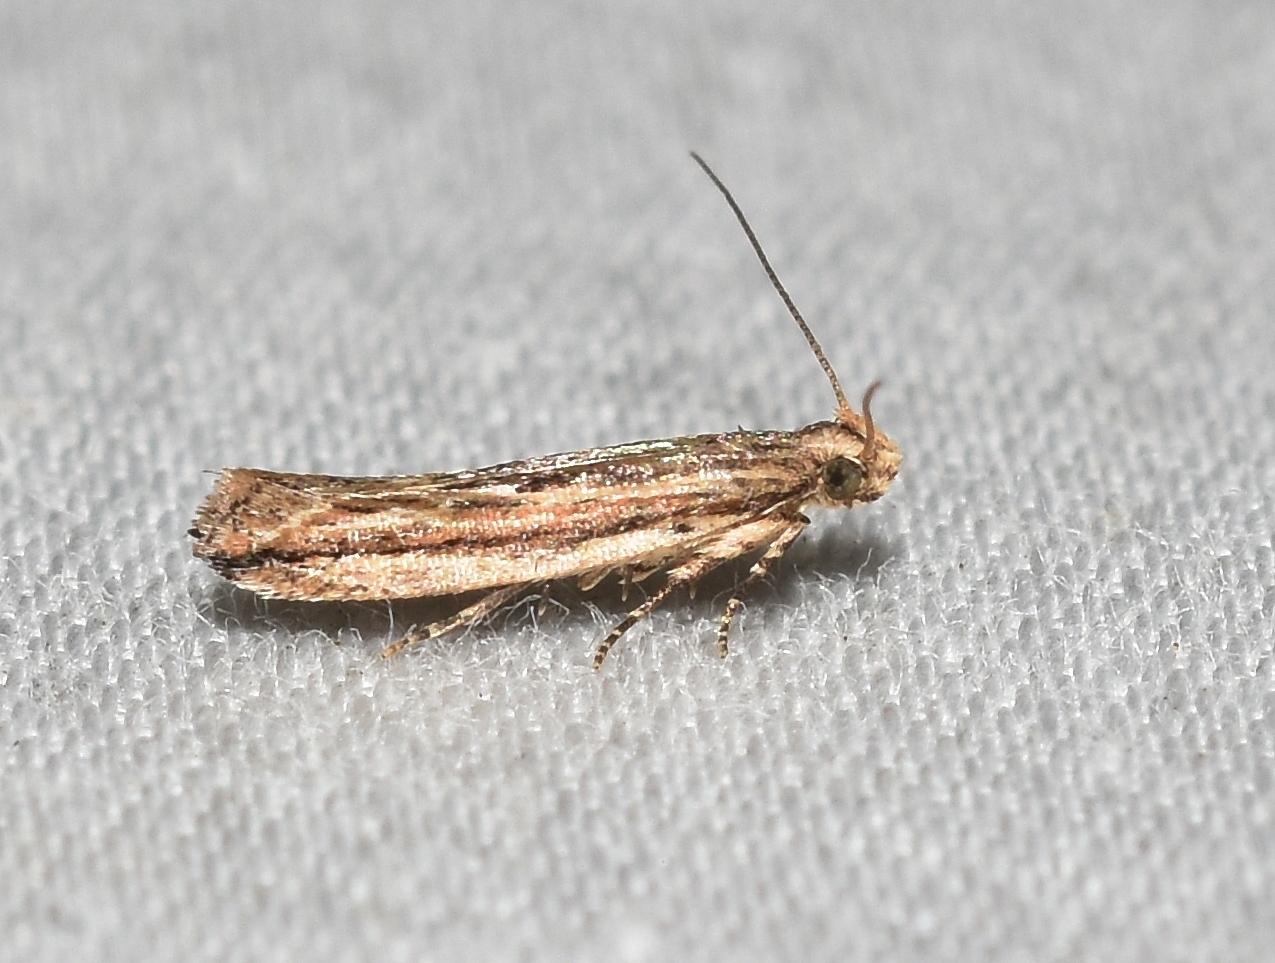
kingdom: Animalia
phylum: Arthropoda
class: Insecta
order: Lepidoptera
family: Gelechiidae
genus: Symmetrischema
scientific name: Symmetrischema striatella
